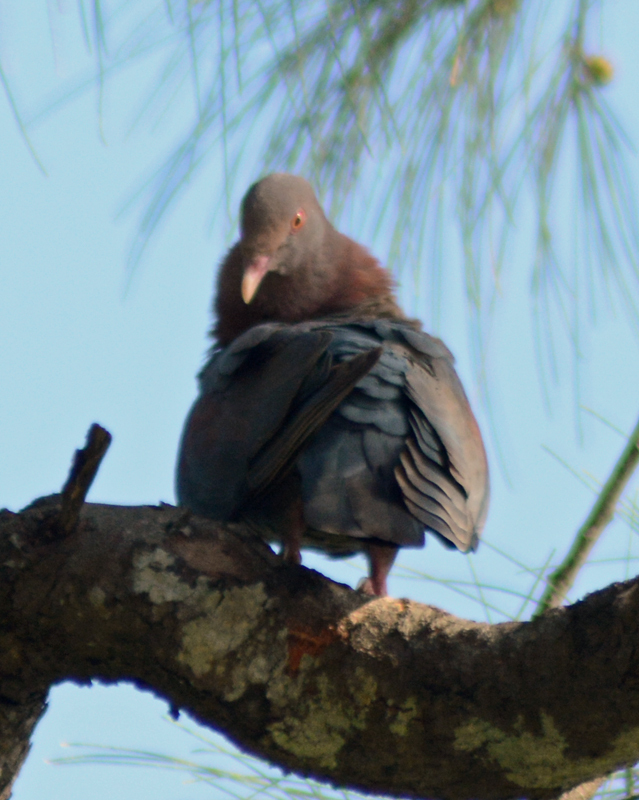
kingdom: Animalia
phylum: Chordata
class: Aves
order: Columbiformes
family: Columbidae
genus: Patagioenas
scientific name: Patagioenas flavirostris
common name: Red-billed pigeon
